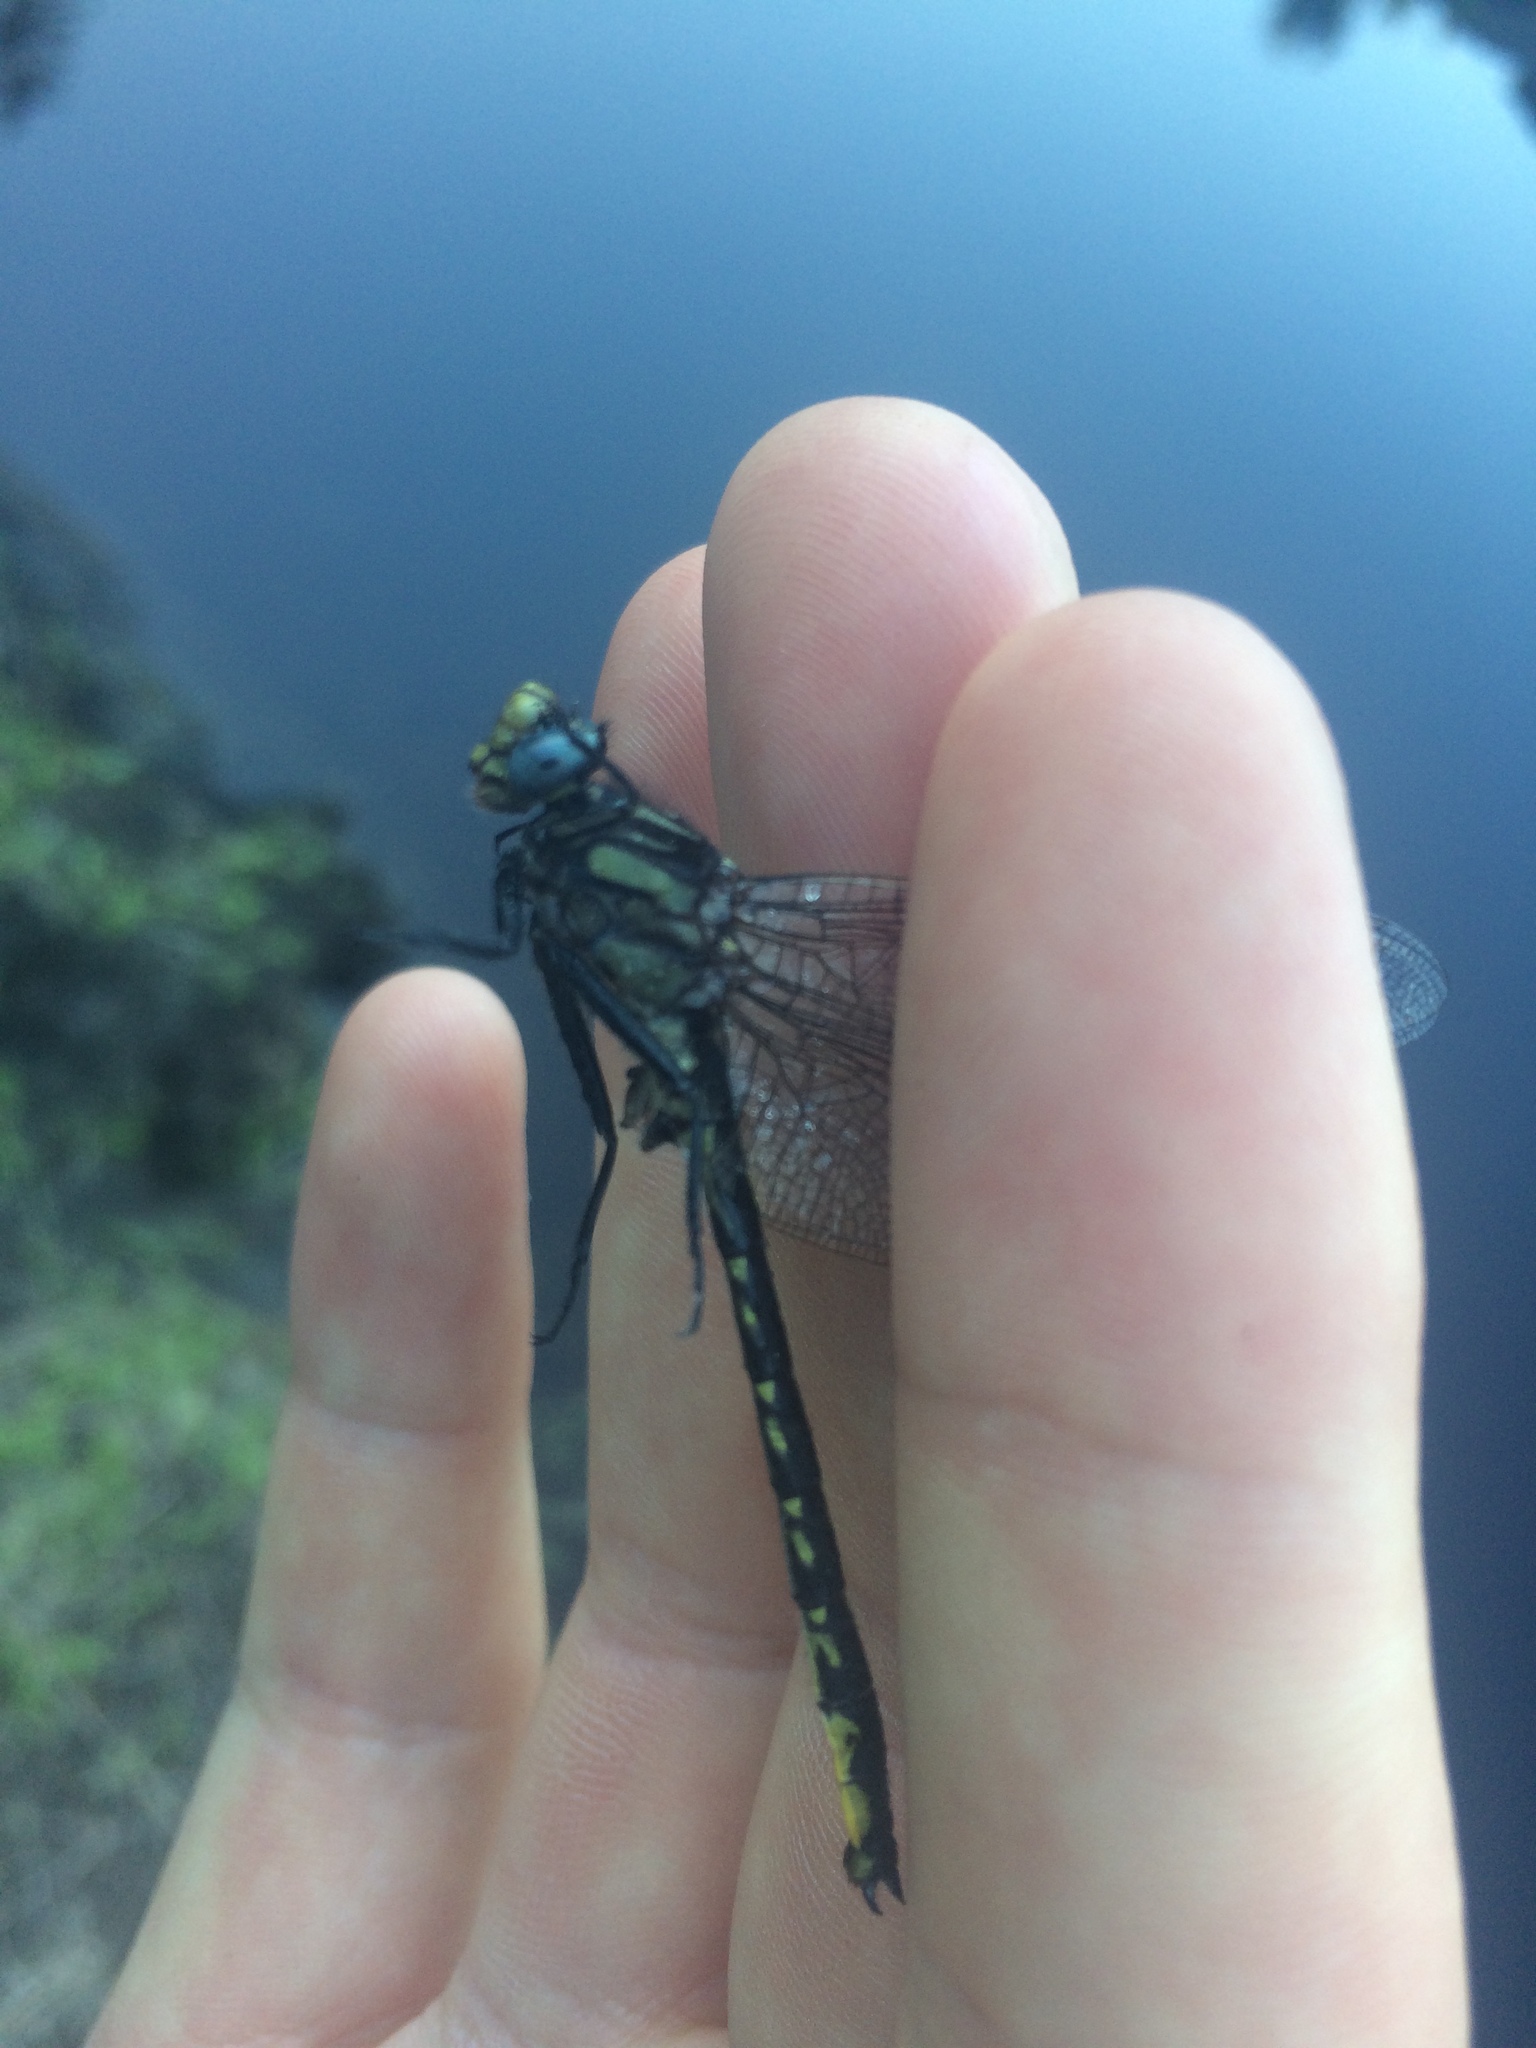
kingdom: Animalia
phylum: Arthropoda
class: Insecta
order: Odonata
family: Gomphidae
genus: Phanogomphus
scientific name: Phanogomphus borealis
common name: Beaverpond clubtail
